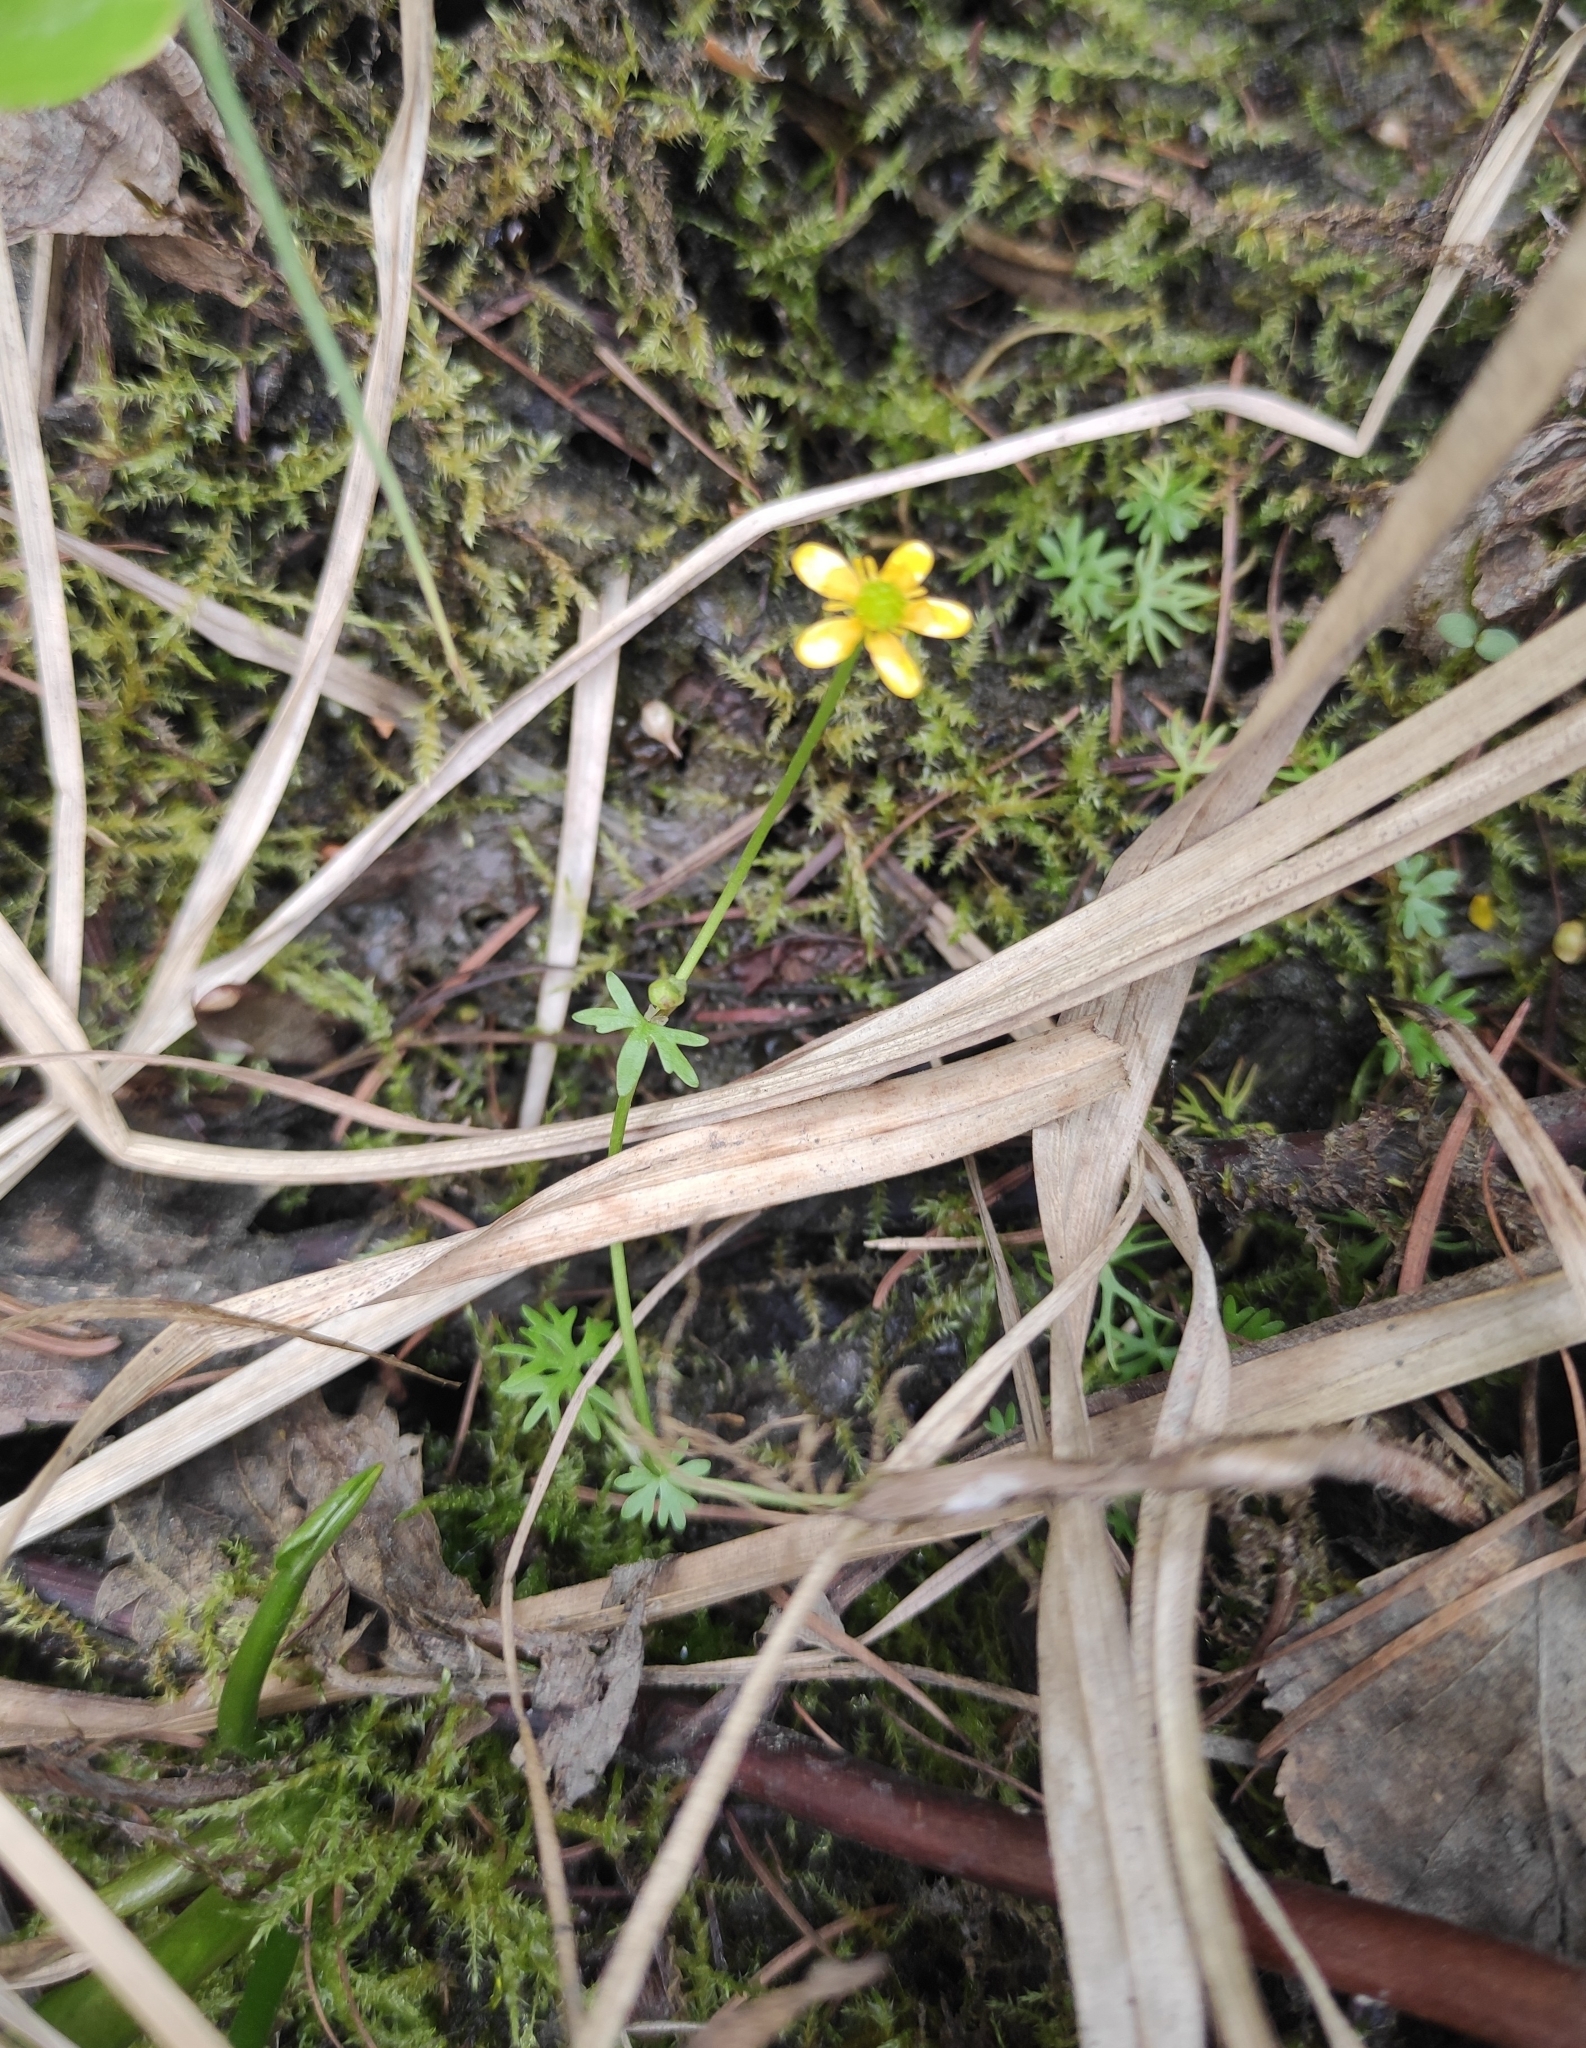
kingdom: Plantae
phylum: Tracheophyta
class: Magnoliopsida
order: Ranunculales
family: Ranunculaceae
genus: Ranunculus
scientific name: Ranunculus gmelinii
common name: Gmelin's buttercup
